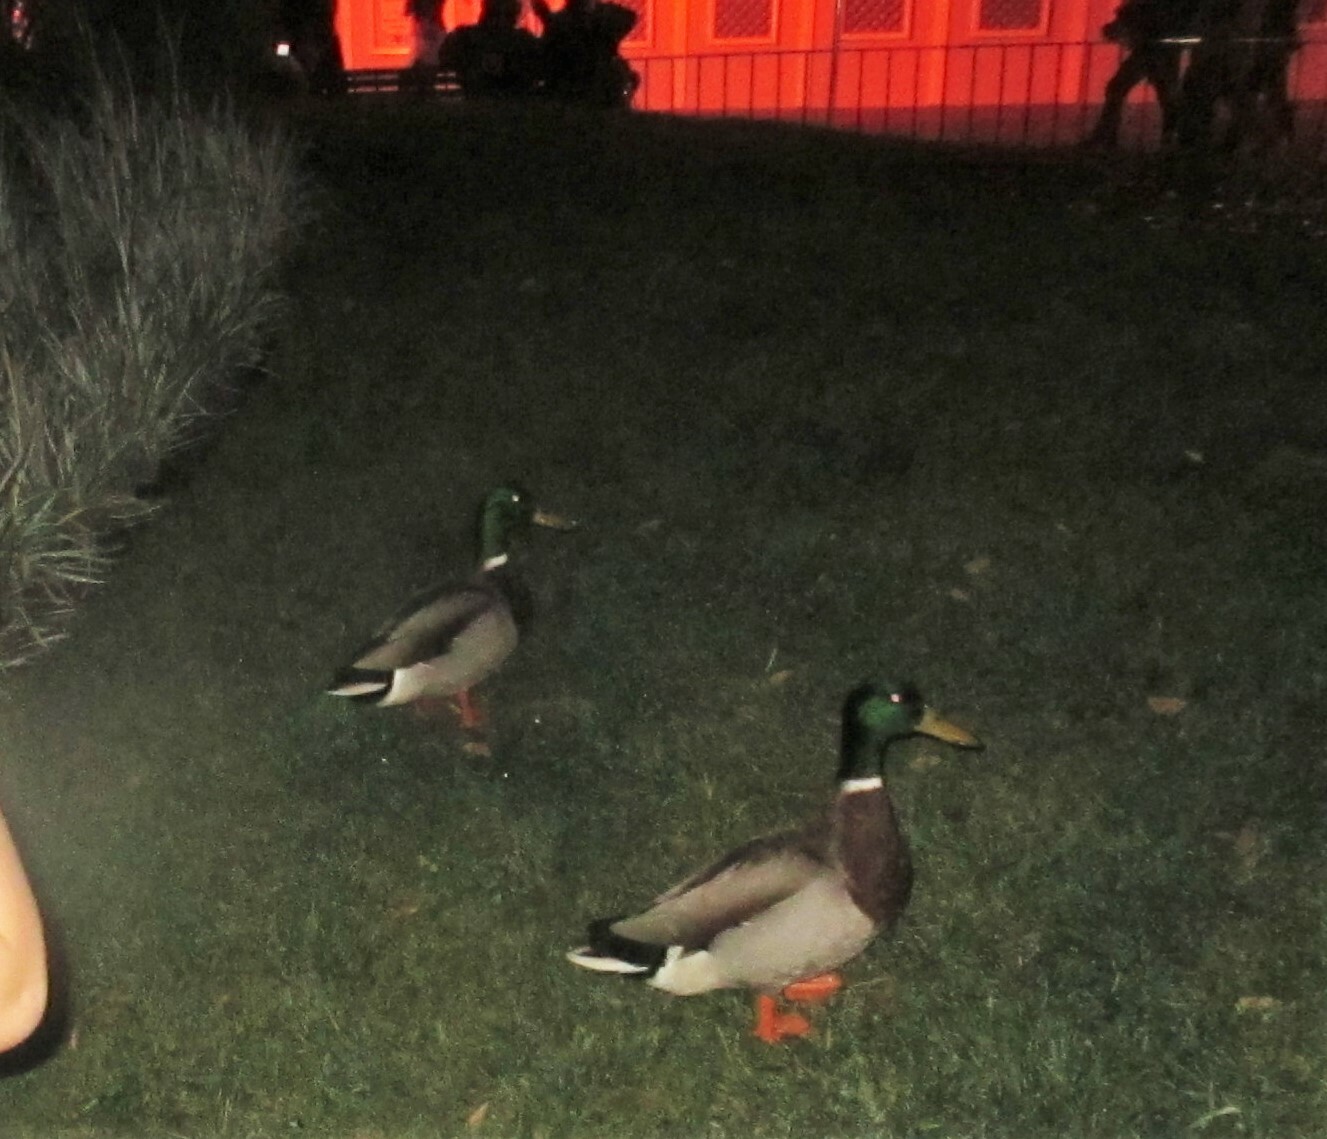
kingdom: Animalia
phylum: Chordata
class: Aves
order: Anseriformes
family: Anatidae
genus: Anas
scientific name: Anas platyrhynchos
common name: Mallard
